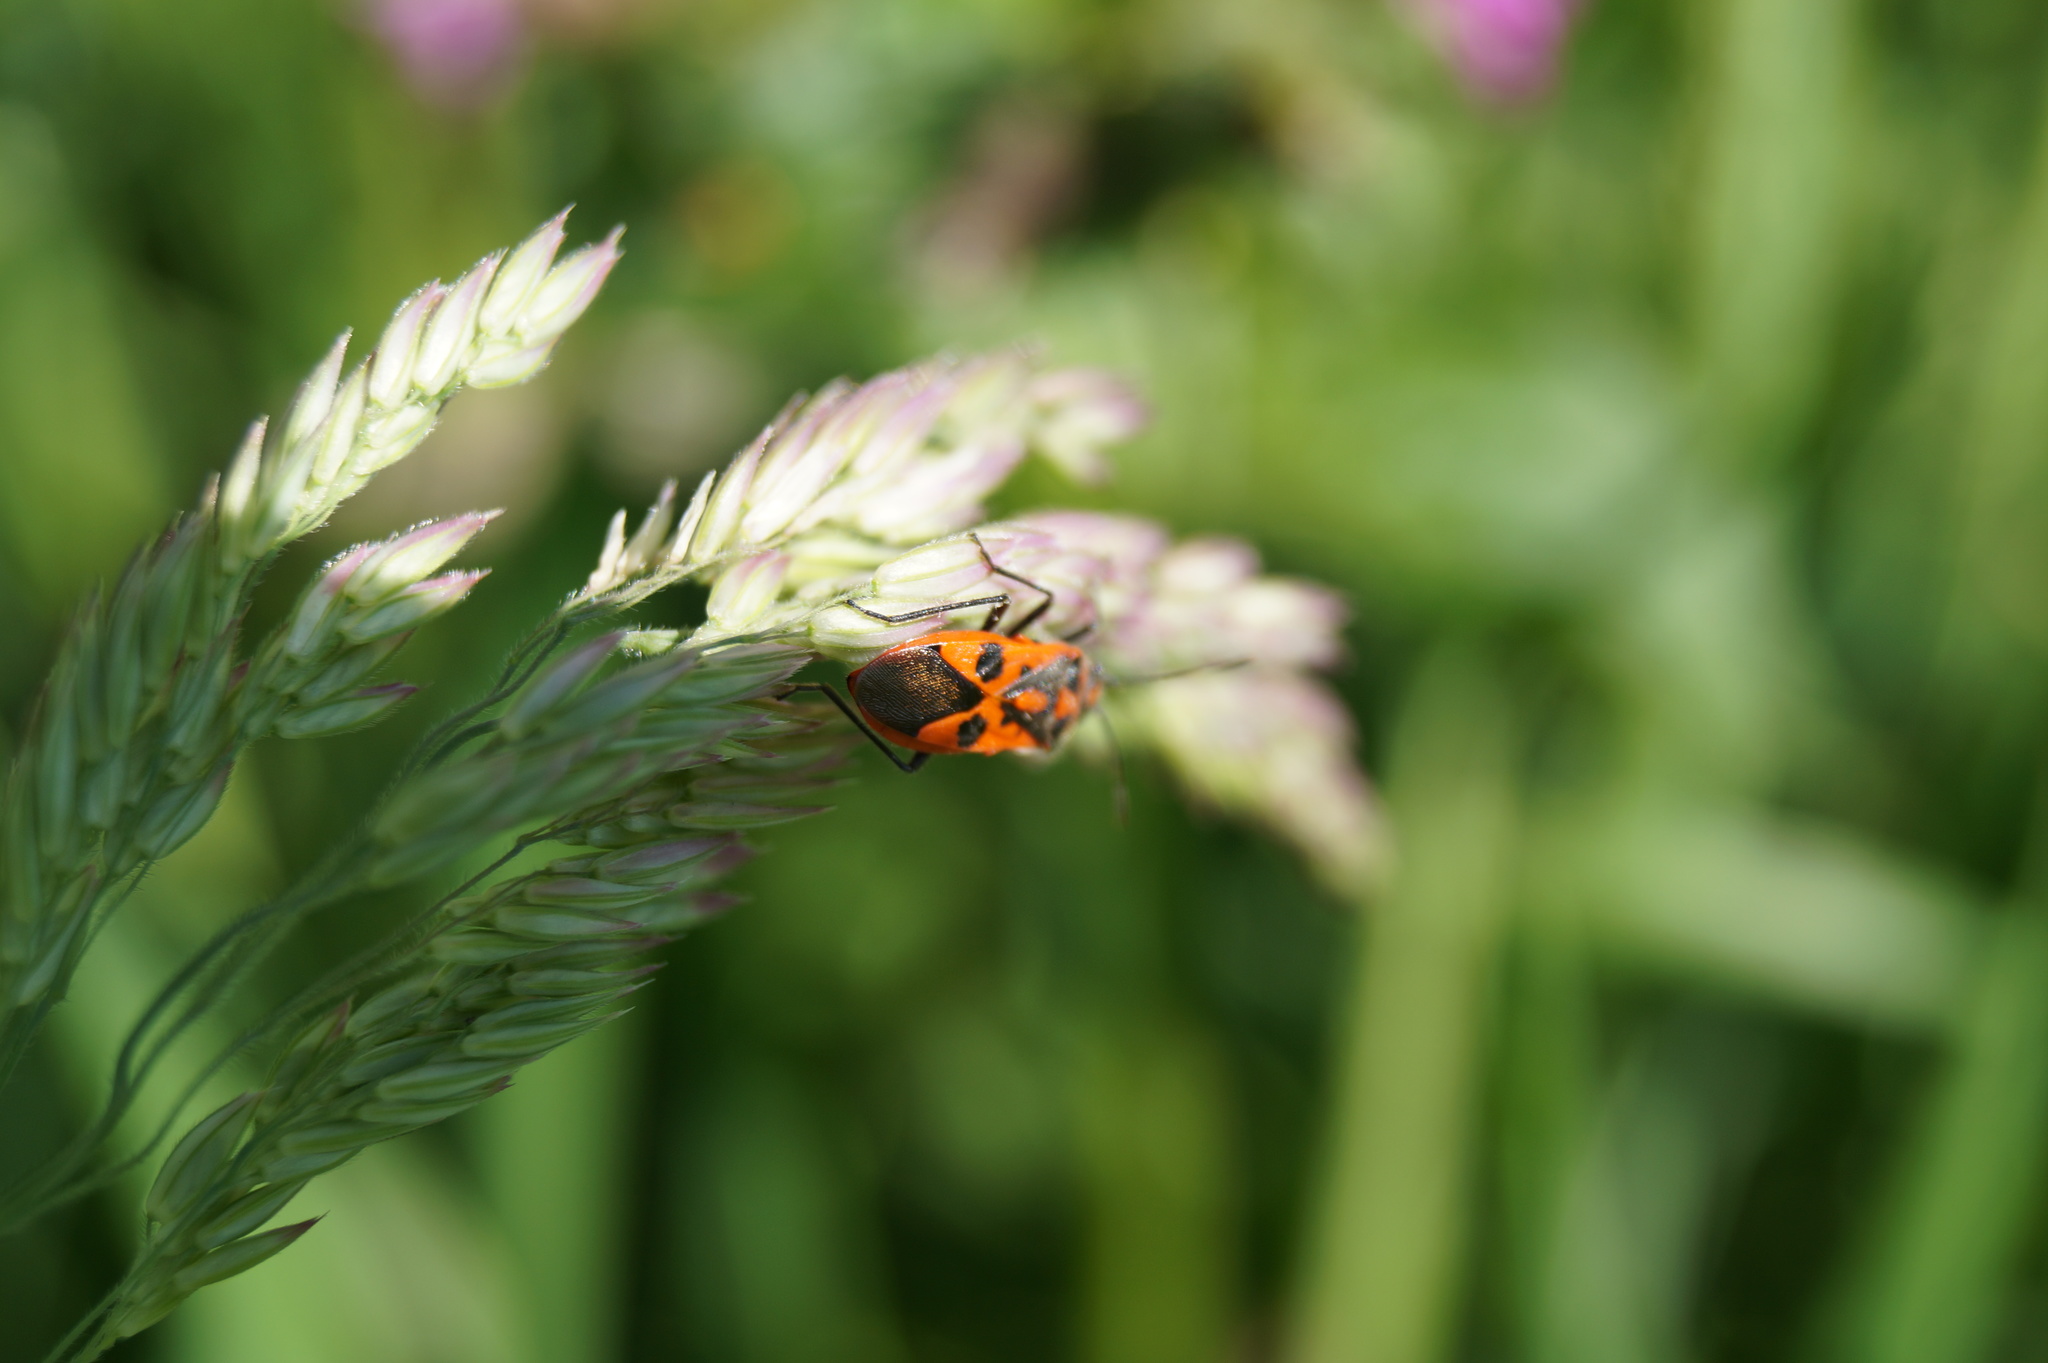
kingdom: Animalia
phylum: Arthropoda
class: Insecta
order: Hemiptera
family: Rhopalidae
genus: Corizus
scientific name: Corizus hyoscyami
